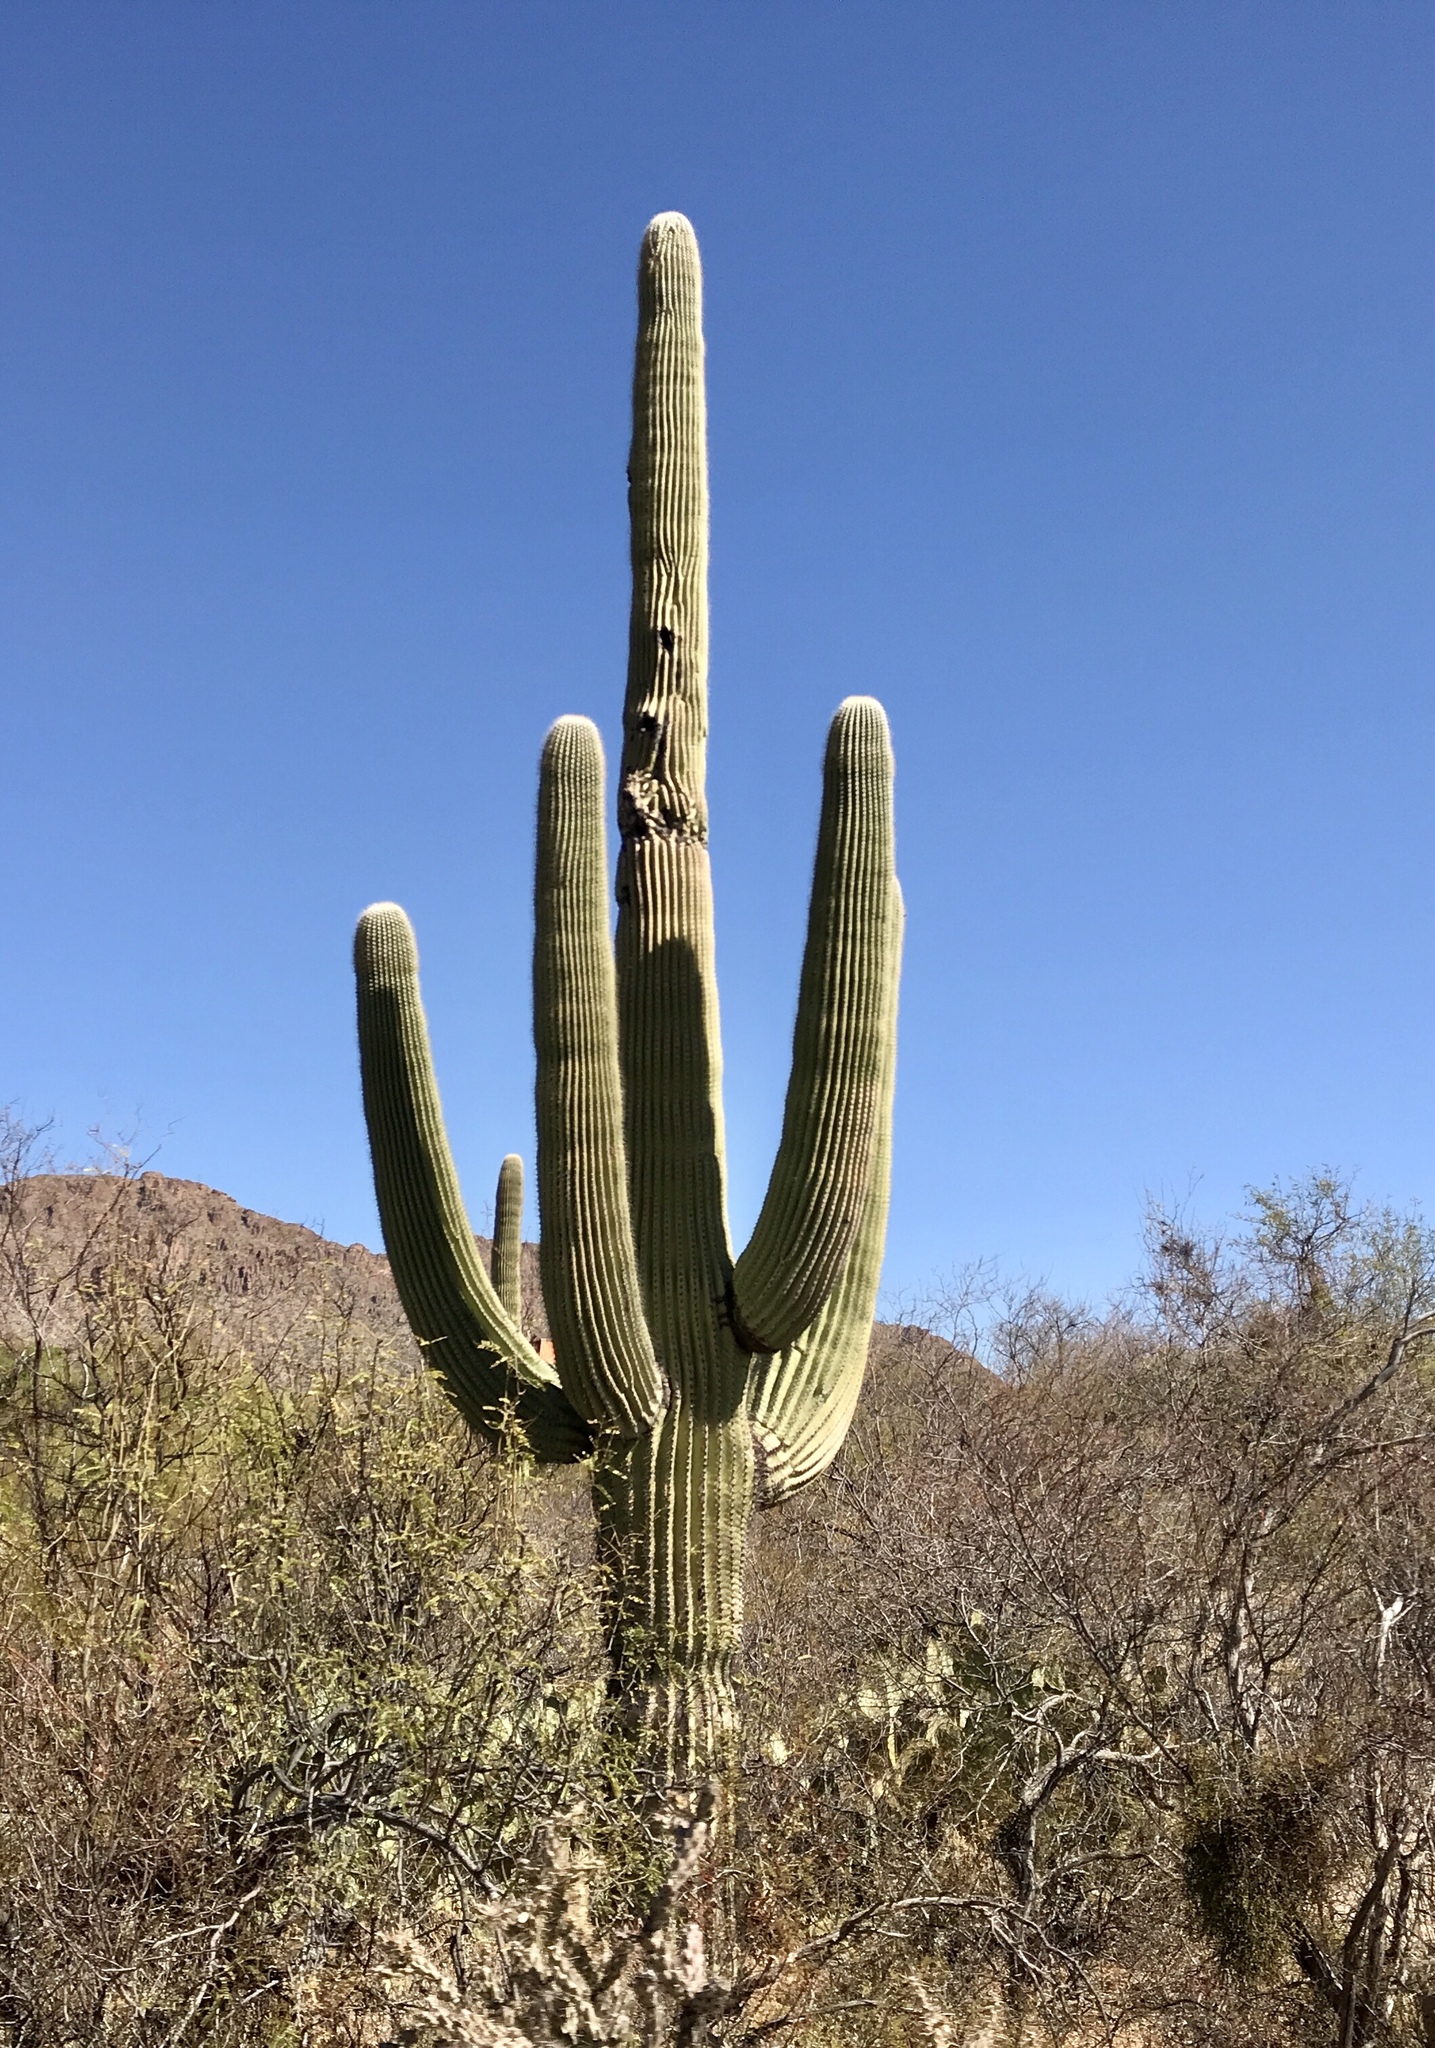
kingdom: Plantae
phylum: Tracheophyta
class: Magnoliopsida
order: Caryophyllales
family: Cactaceae
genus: Carnegiea
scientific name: Carnegiea gigantea
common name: Saguaro
